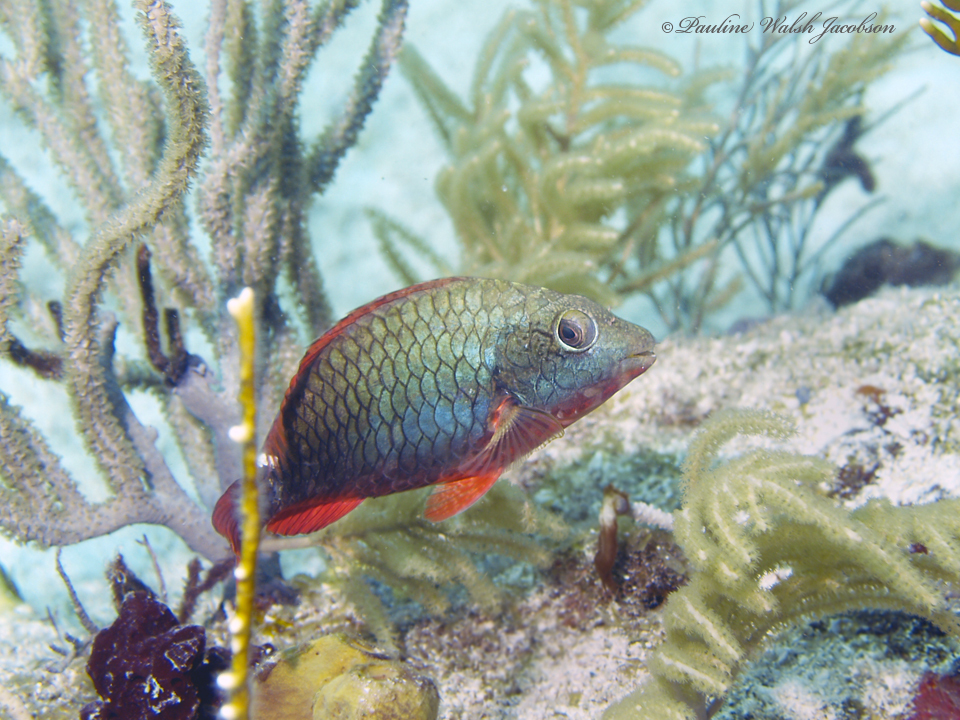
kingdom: Animalia
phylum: Chordata
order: Perciformes
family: Scaridae
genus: Sparisoma
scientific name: Sparisoma aurofrenatum
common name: Redband parrotfish
